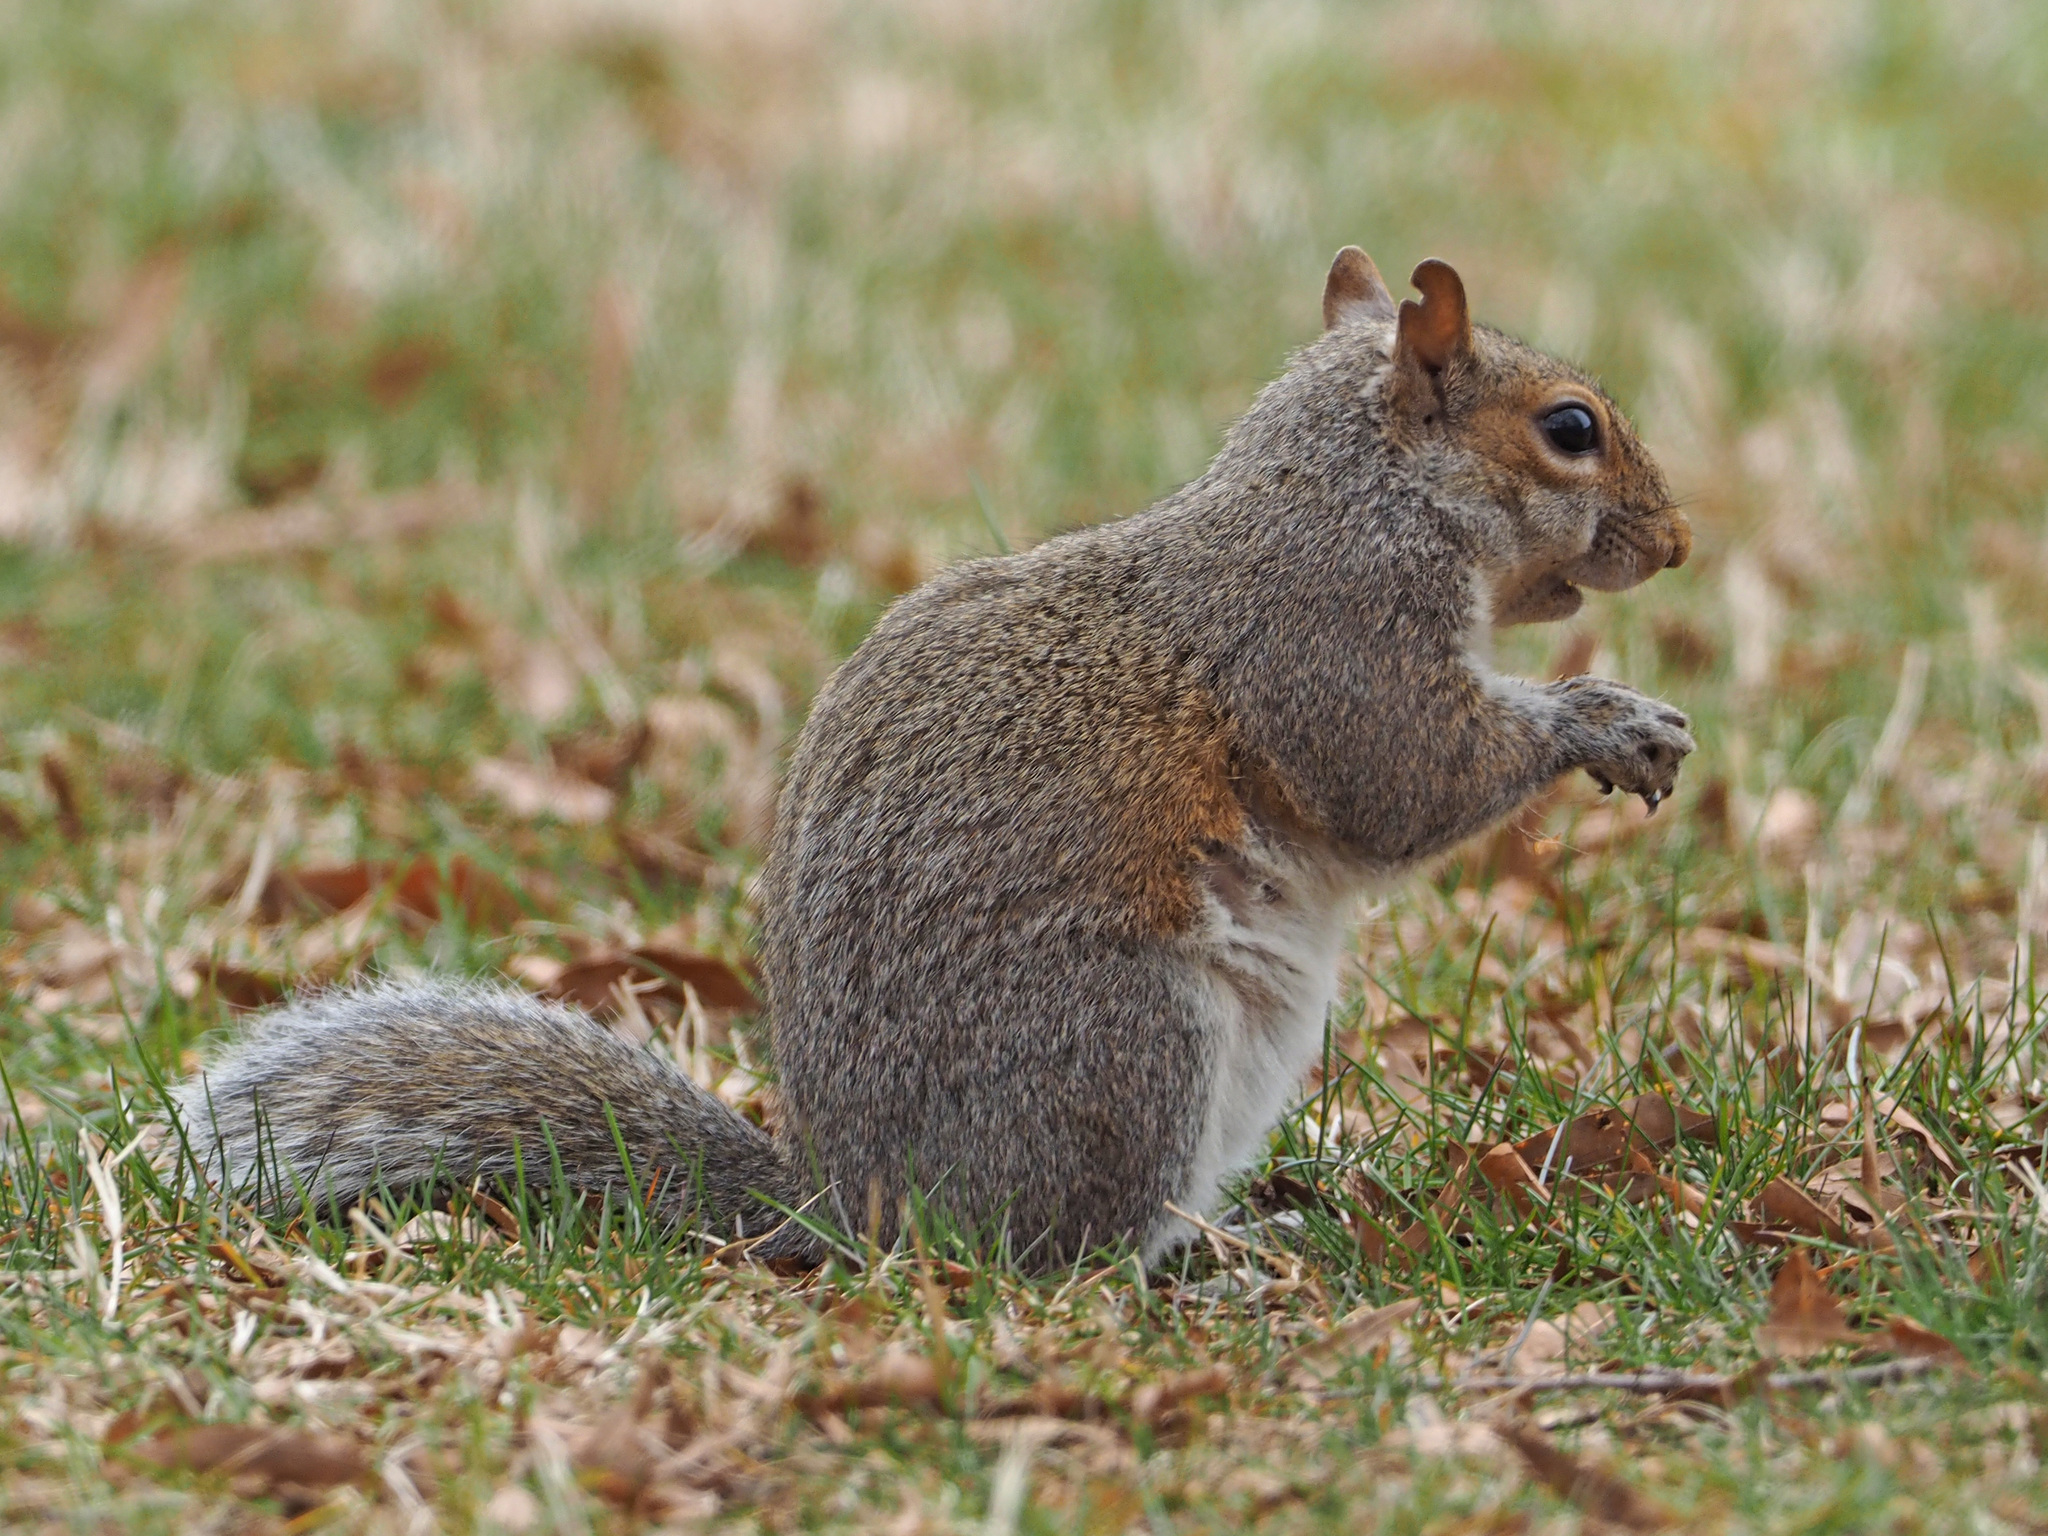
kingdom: Animalia
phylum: Chordata
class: Mammalia
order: Rodentia
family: Sciuridae
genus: Sciurus
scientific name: Sciurus carolinensis
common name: Eastern gray squirrel
